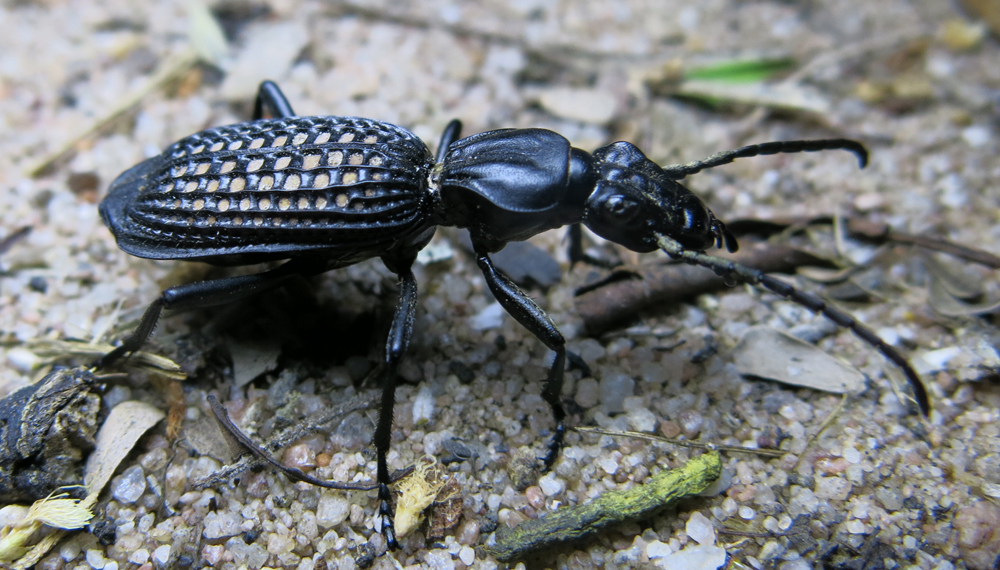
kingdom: Animalia
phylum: Arthropoda
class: Insecta
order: Coleoptera
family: Carabidae
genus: Cypholoba
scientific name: Cypholoba alveolata
